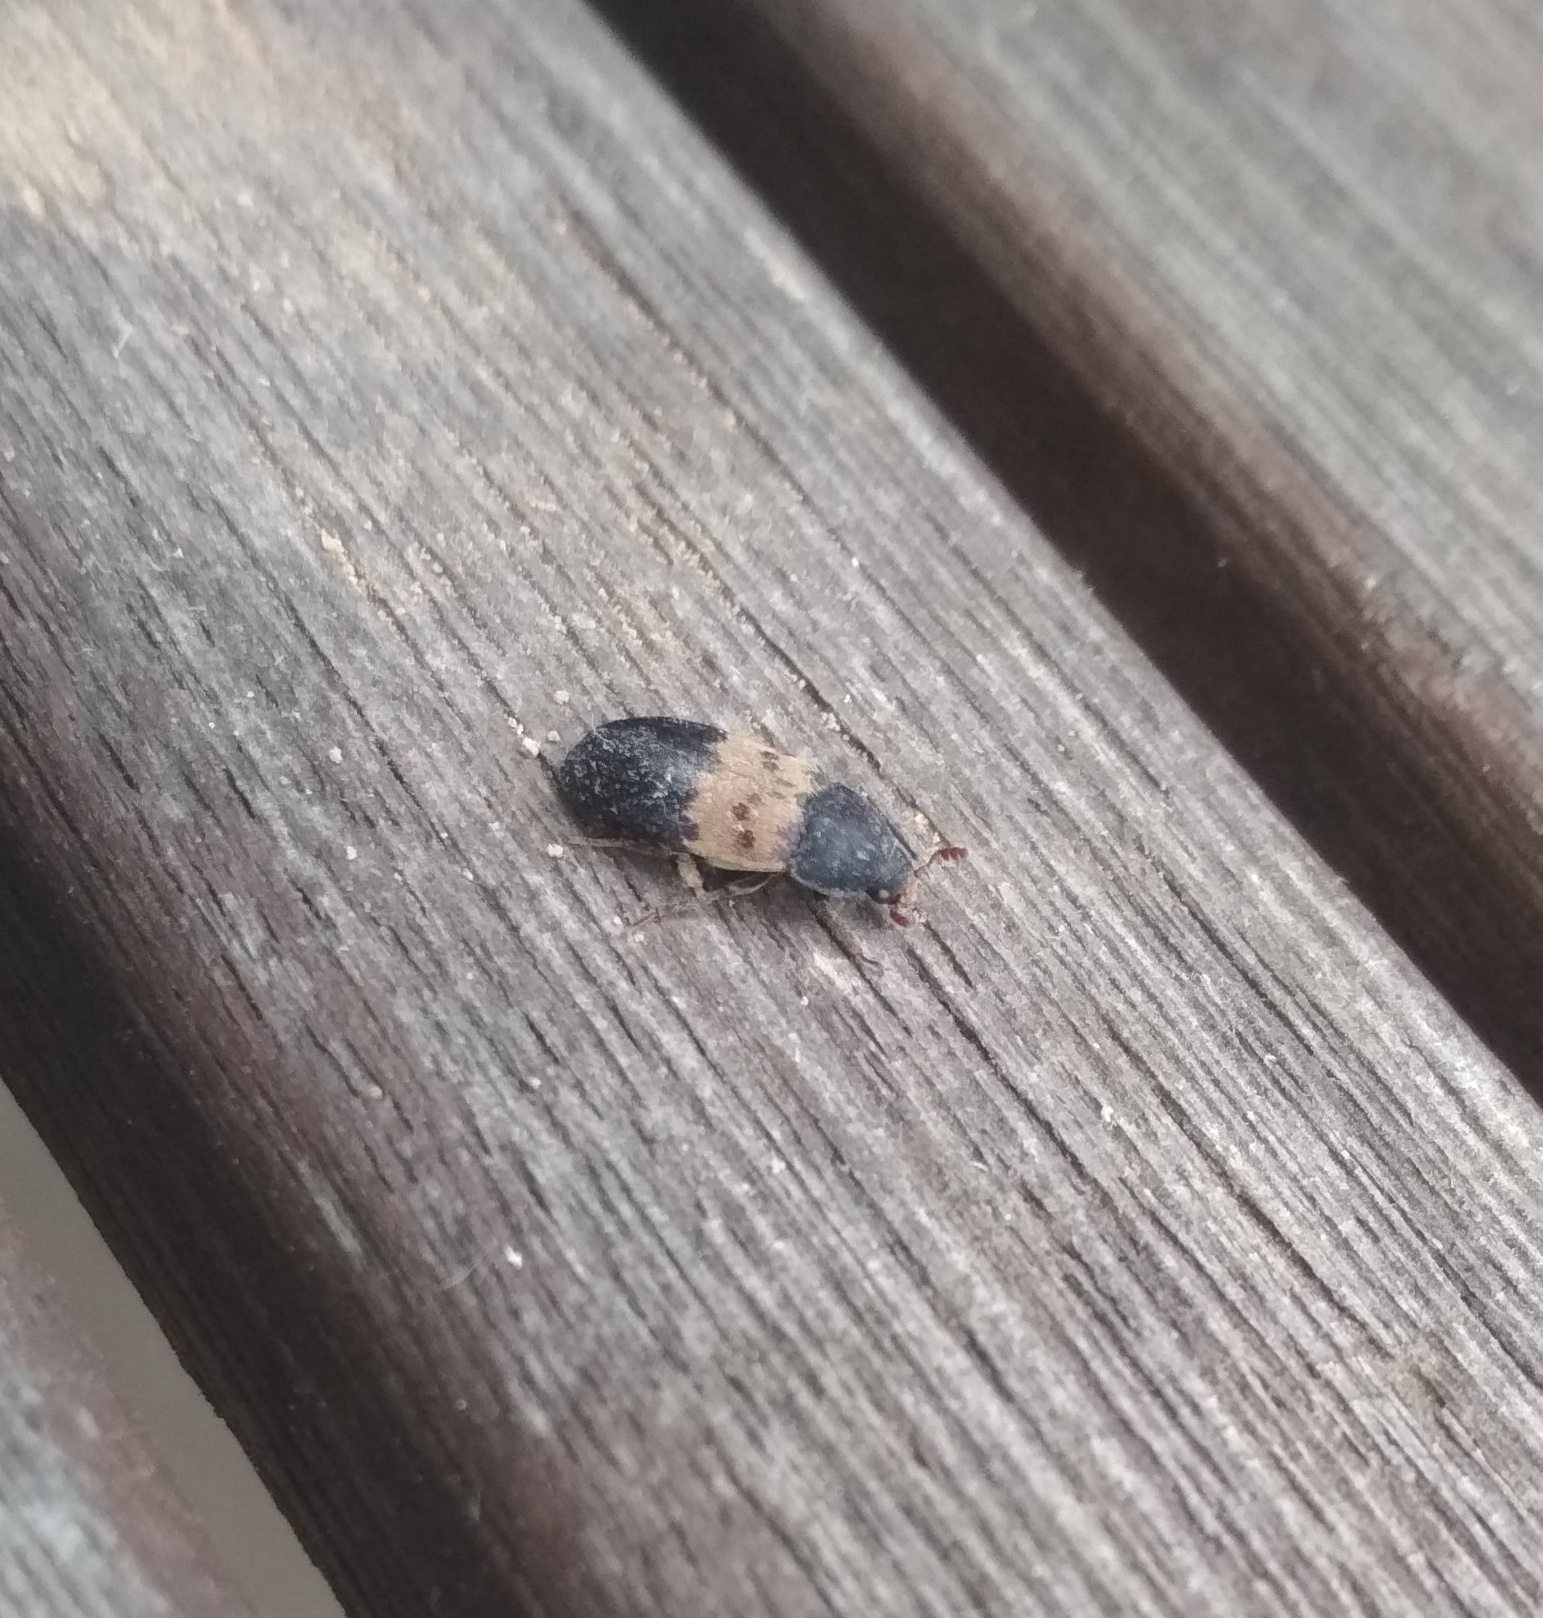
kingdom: Animalia
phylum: Arthropoda
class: Insecta
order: Coleoptera
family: Dermestidae
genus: Dermestes
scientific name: Dermestes lardarius
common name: Larder beetle
